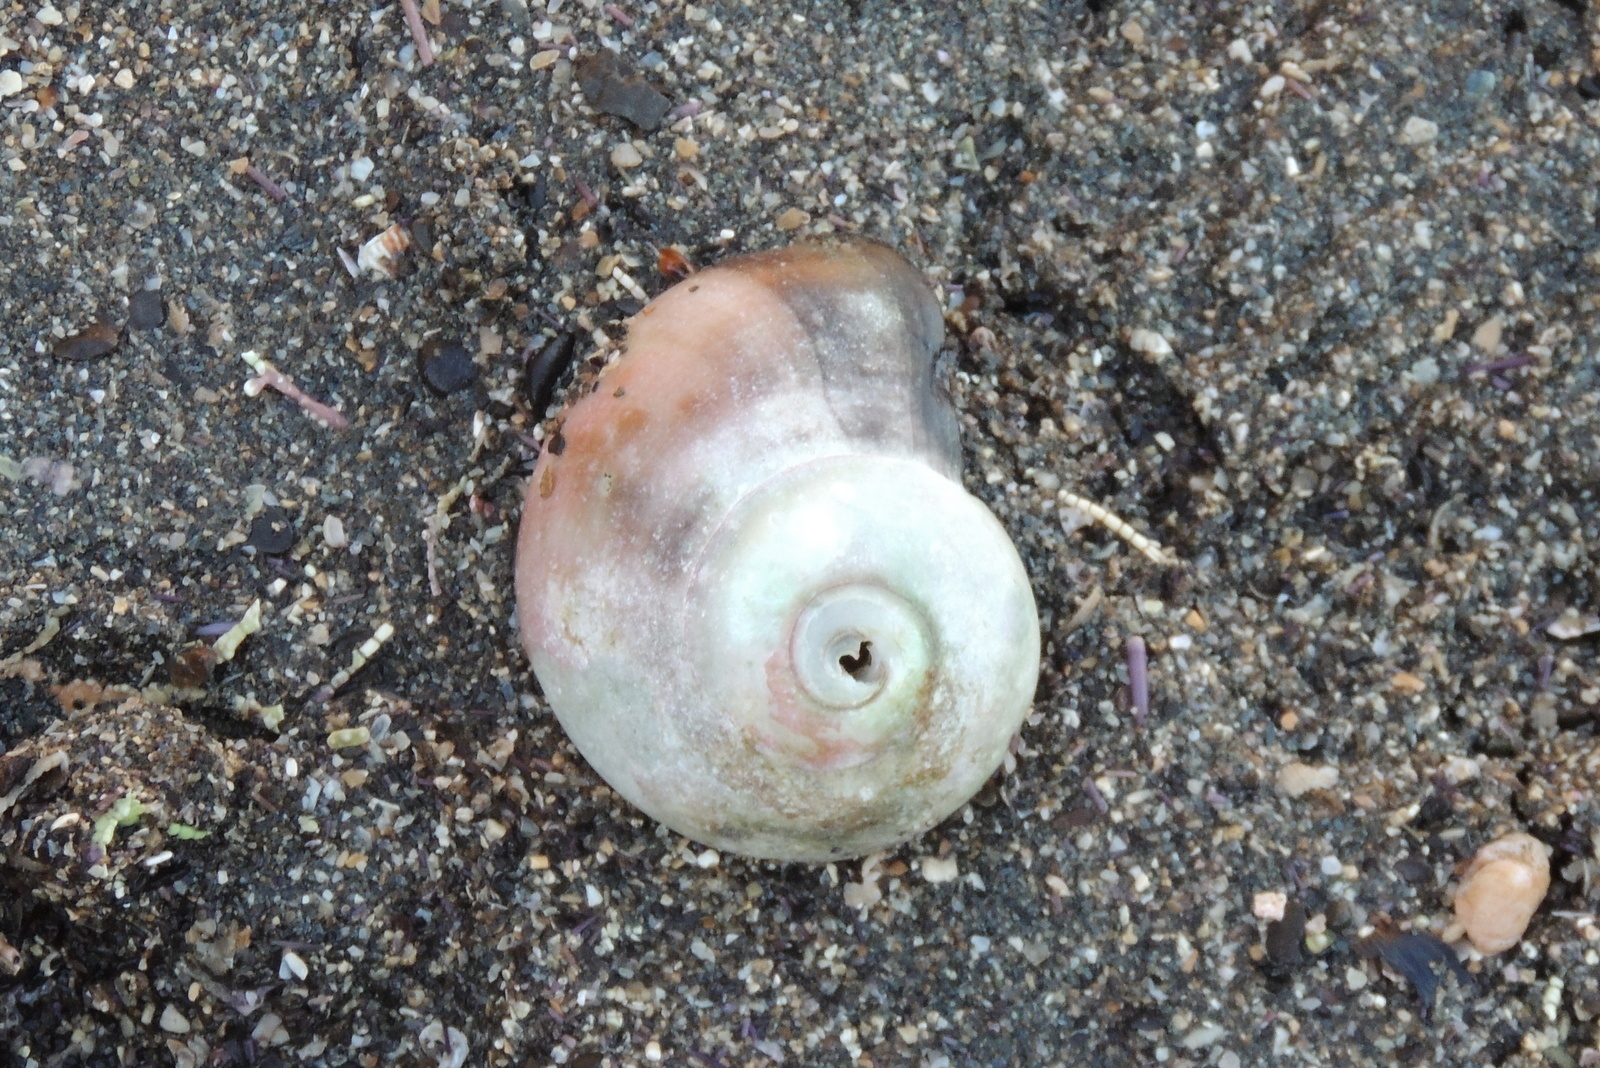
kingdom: Animalia
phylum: Mollusca
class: Gastropoda
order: Trochida
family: Tegulidae
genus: Norrisia
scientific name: Norrisia norrisii
